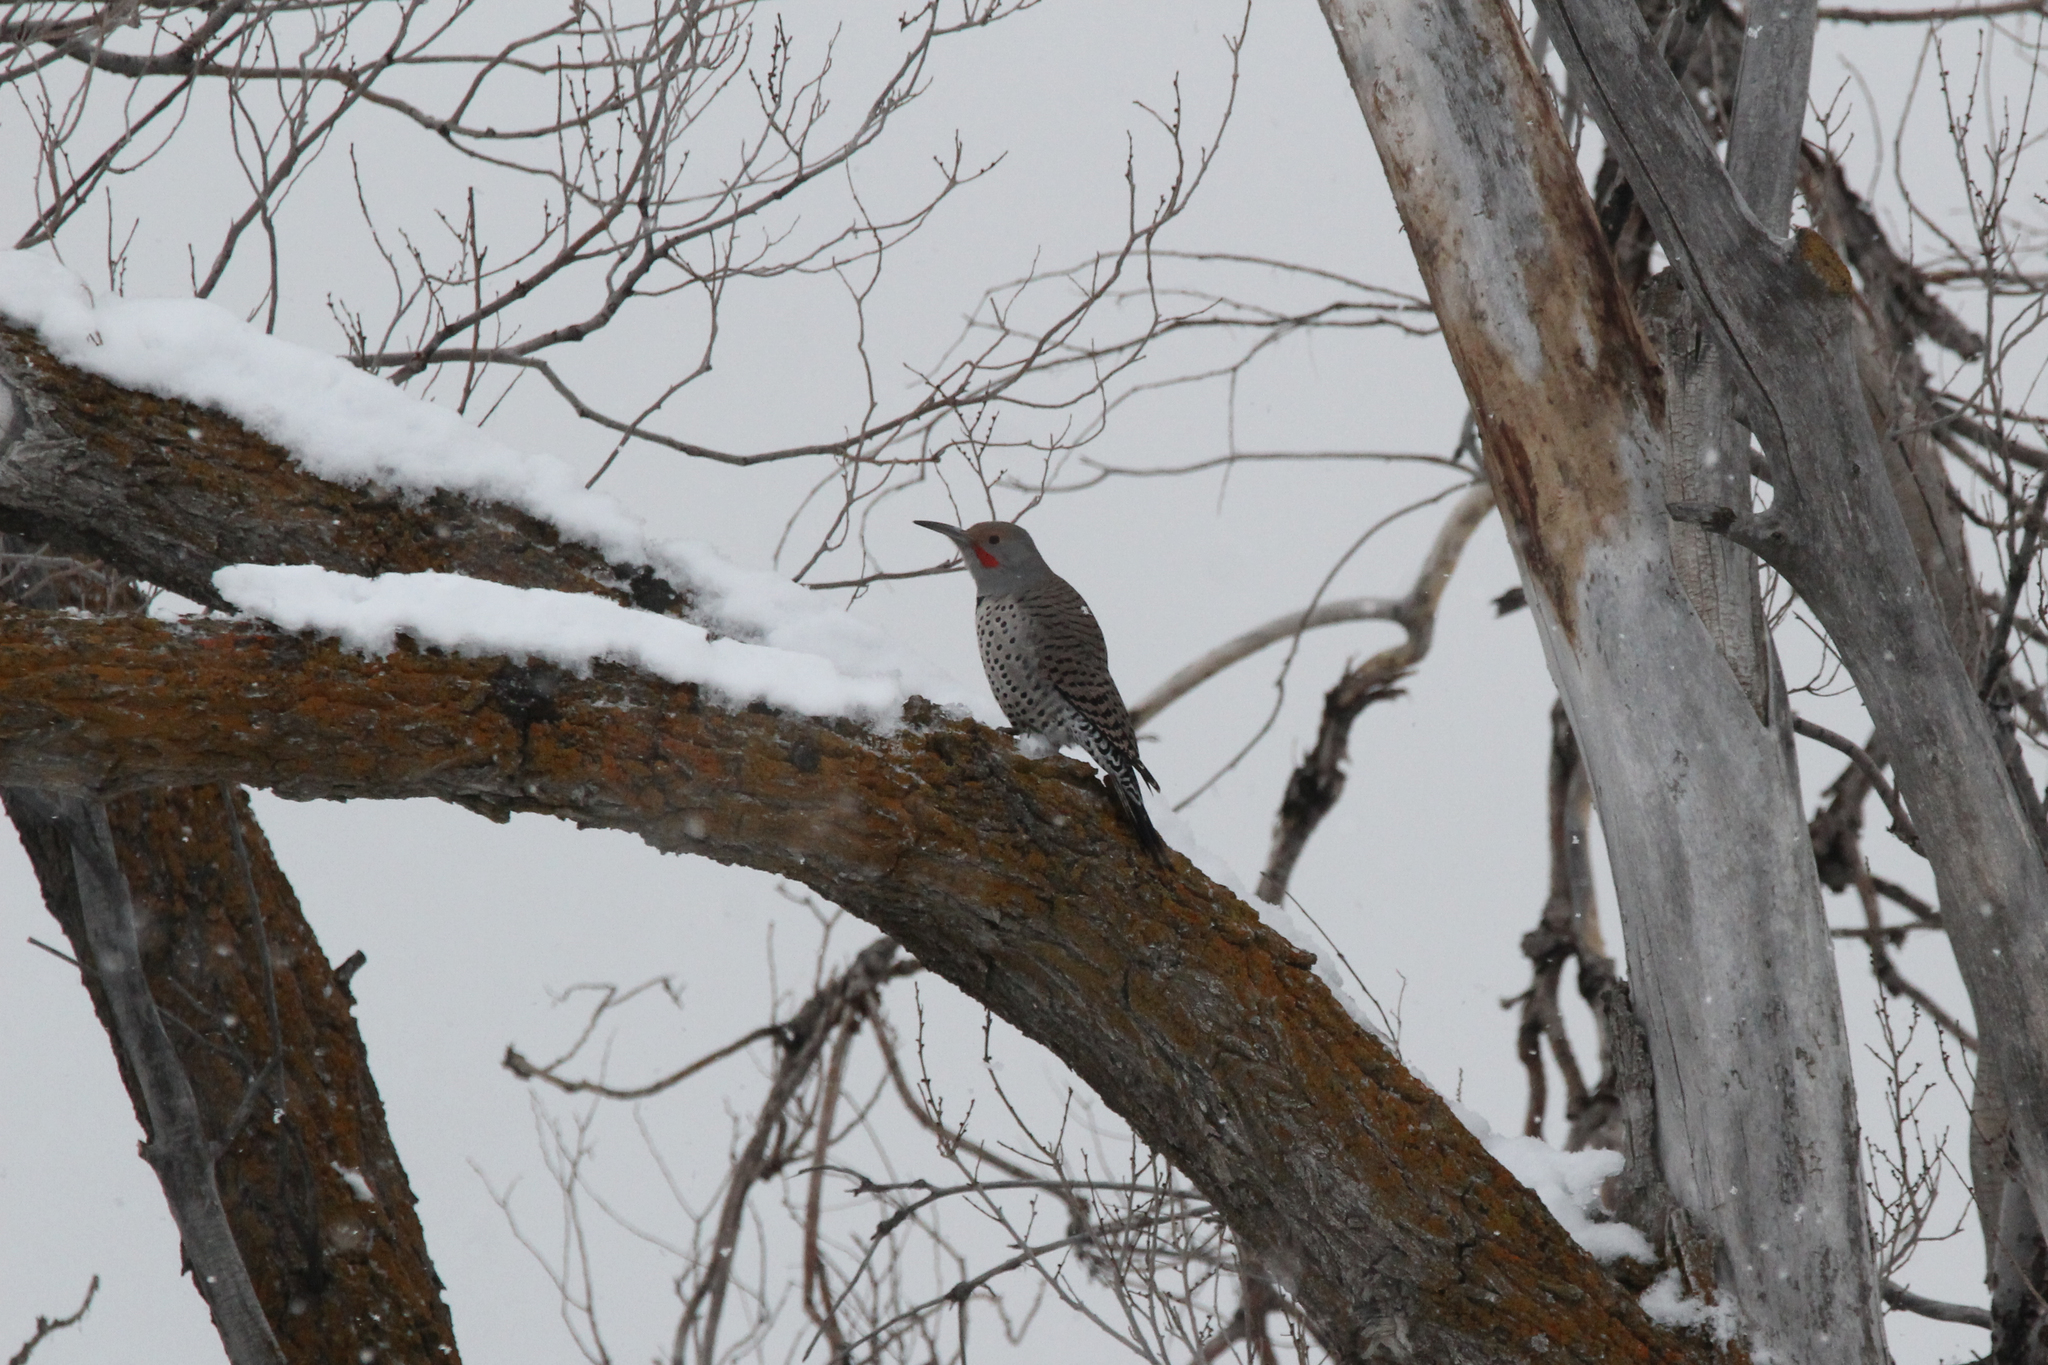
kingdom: Animalia
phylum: Chordata
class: Aves
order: Piciformes
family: Picidae
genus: Colaptes
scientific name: Colaptes auratus
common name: Northern flicker
